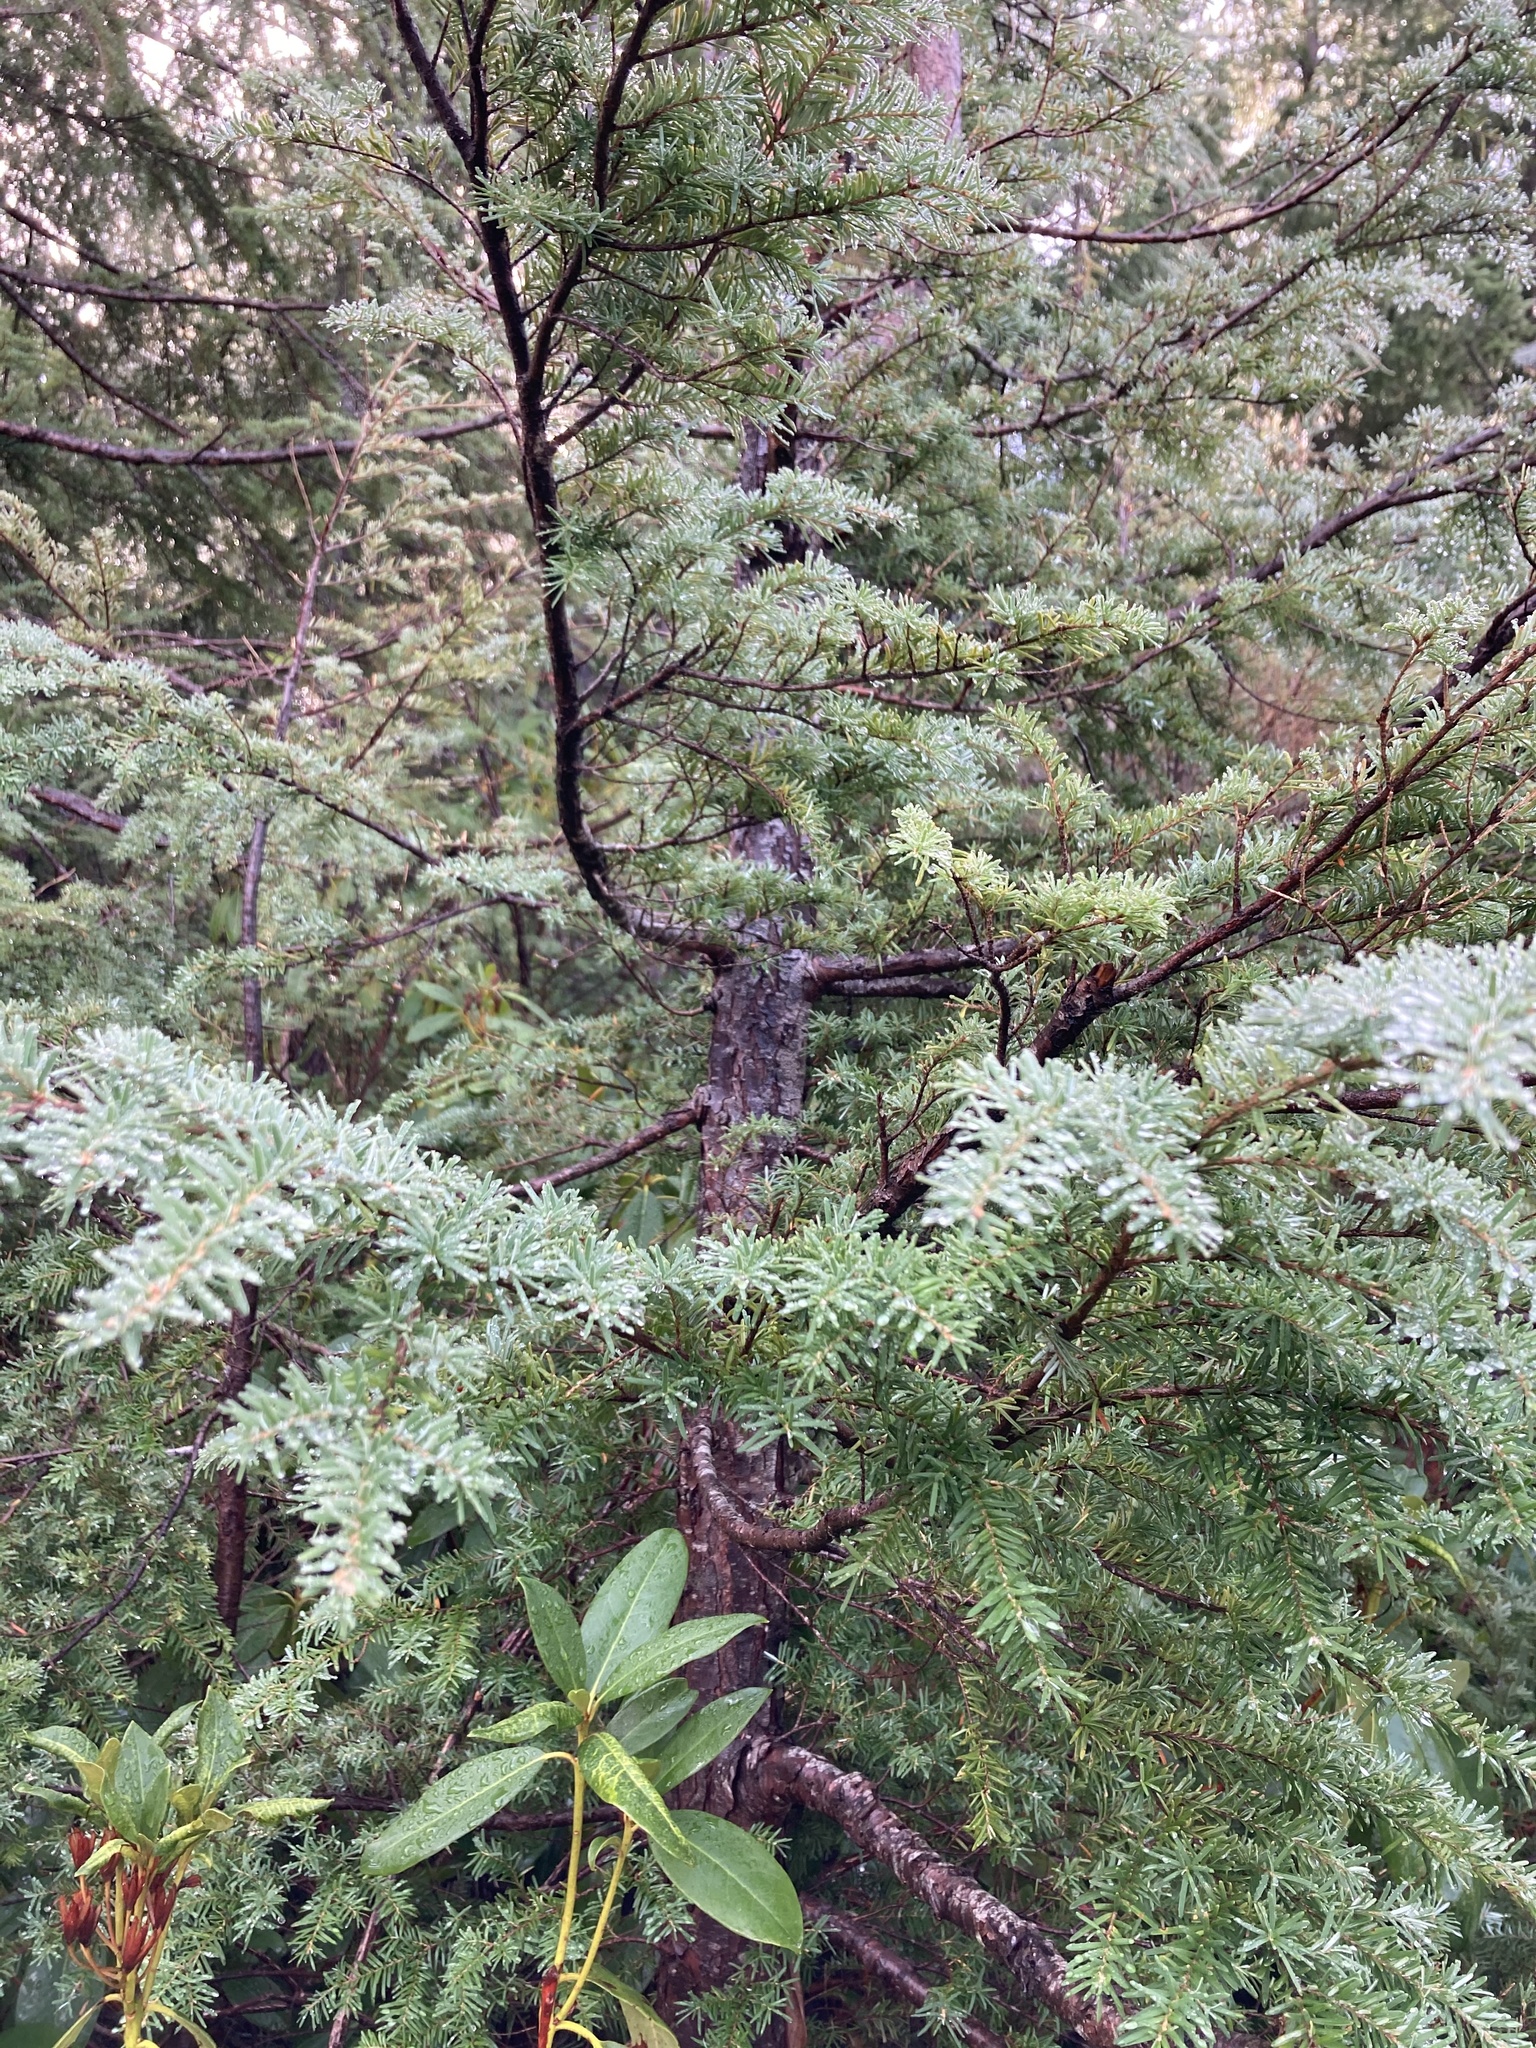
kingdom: Plantae
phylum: Tracheophyta
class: Pinopsida
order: Pinales
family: Pinaceae
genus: Tsuga
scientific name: Tsuga heterophylla
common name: Western hemlock
